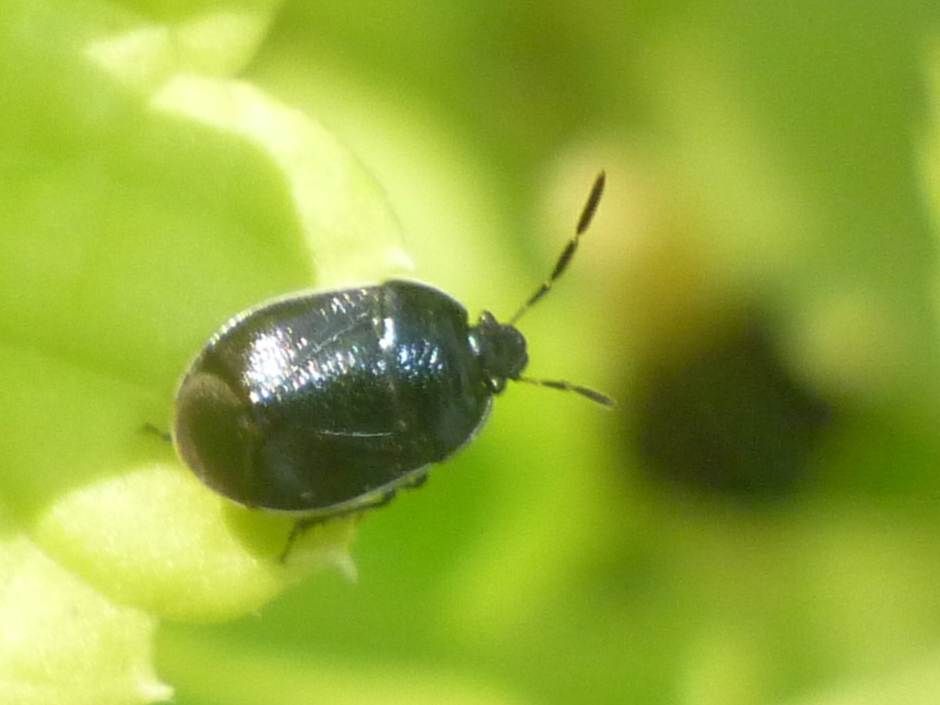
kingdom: Animalia
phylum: Arthropoda
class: Insecta
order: Hemiptera
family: Cydnidae
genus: Sehirus
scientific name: Sehirus cinctus
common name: White-margined burrower bug
